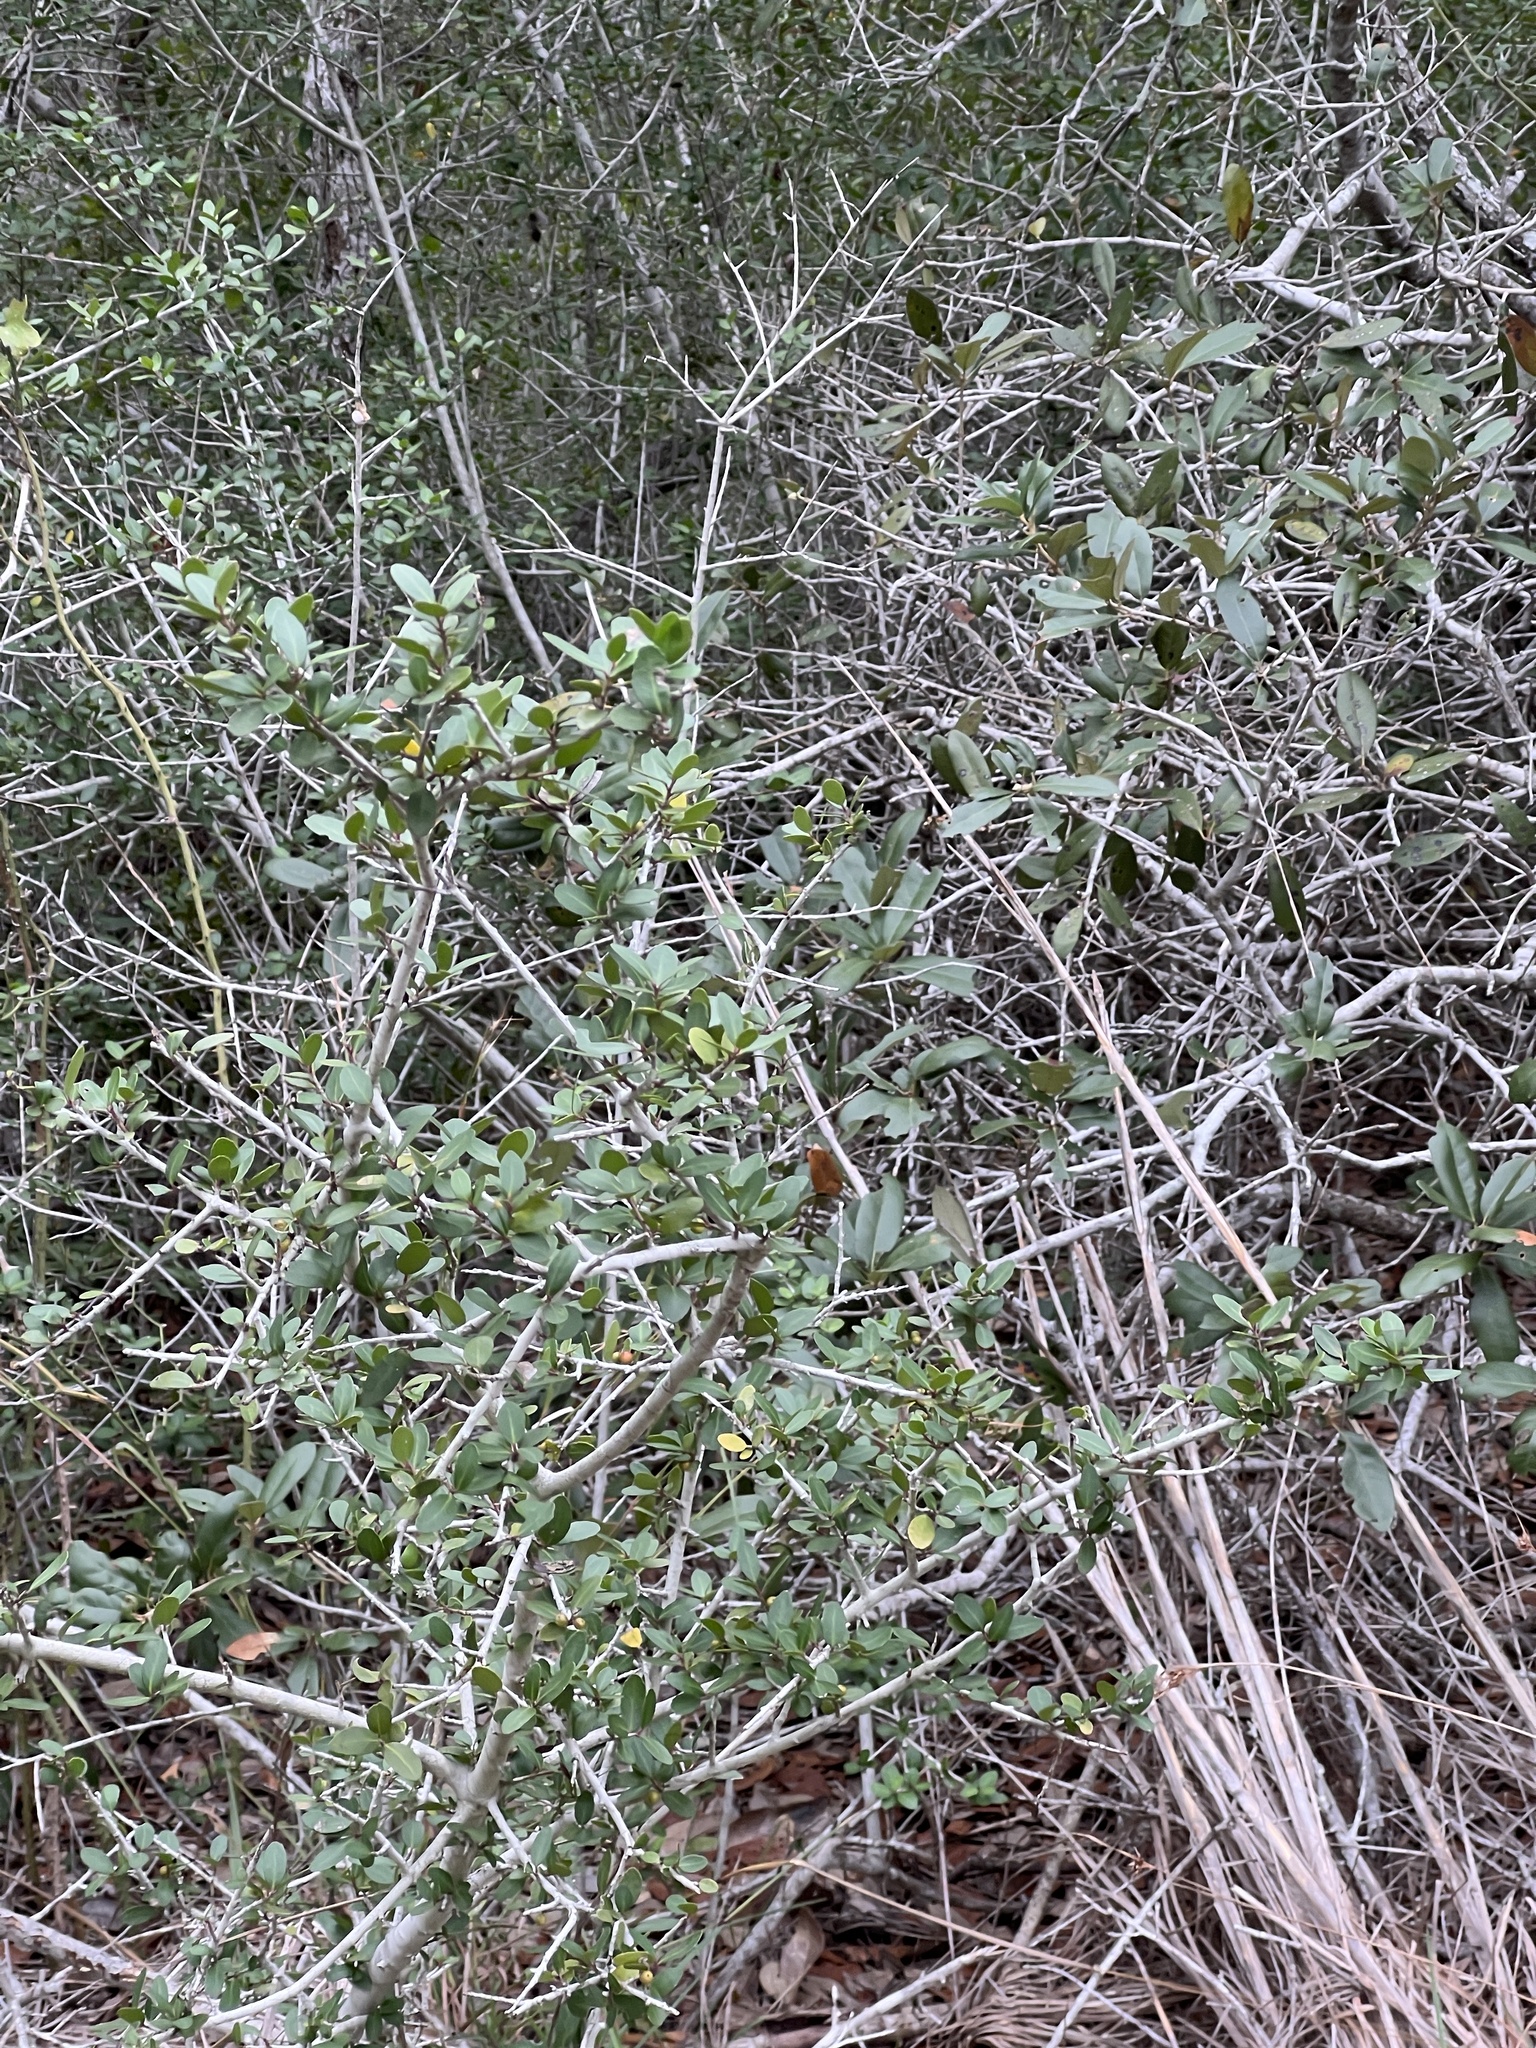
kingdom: Plantae
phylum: Tracheophyta
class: Magnoliopsida
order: Aquifoliales
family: Aquifoliaceae
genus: Ilex
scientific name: Ilex vomitoria
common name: Yaupon holly
